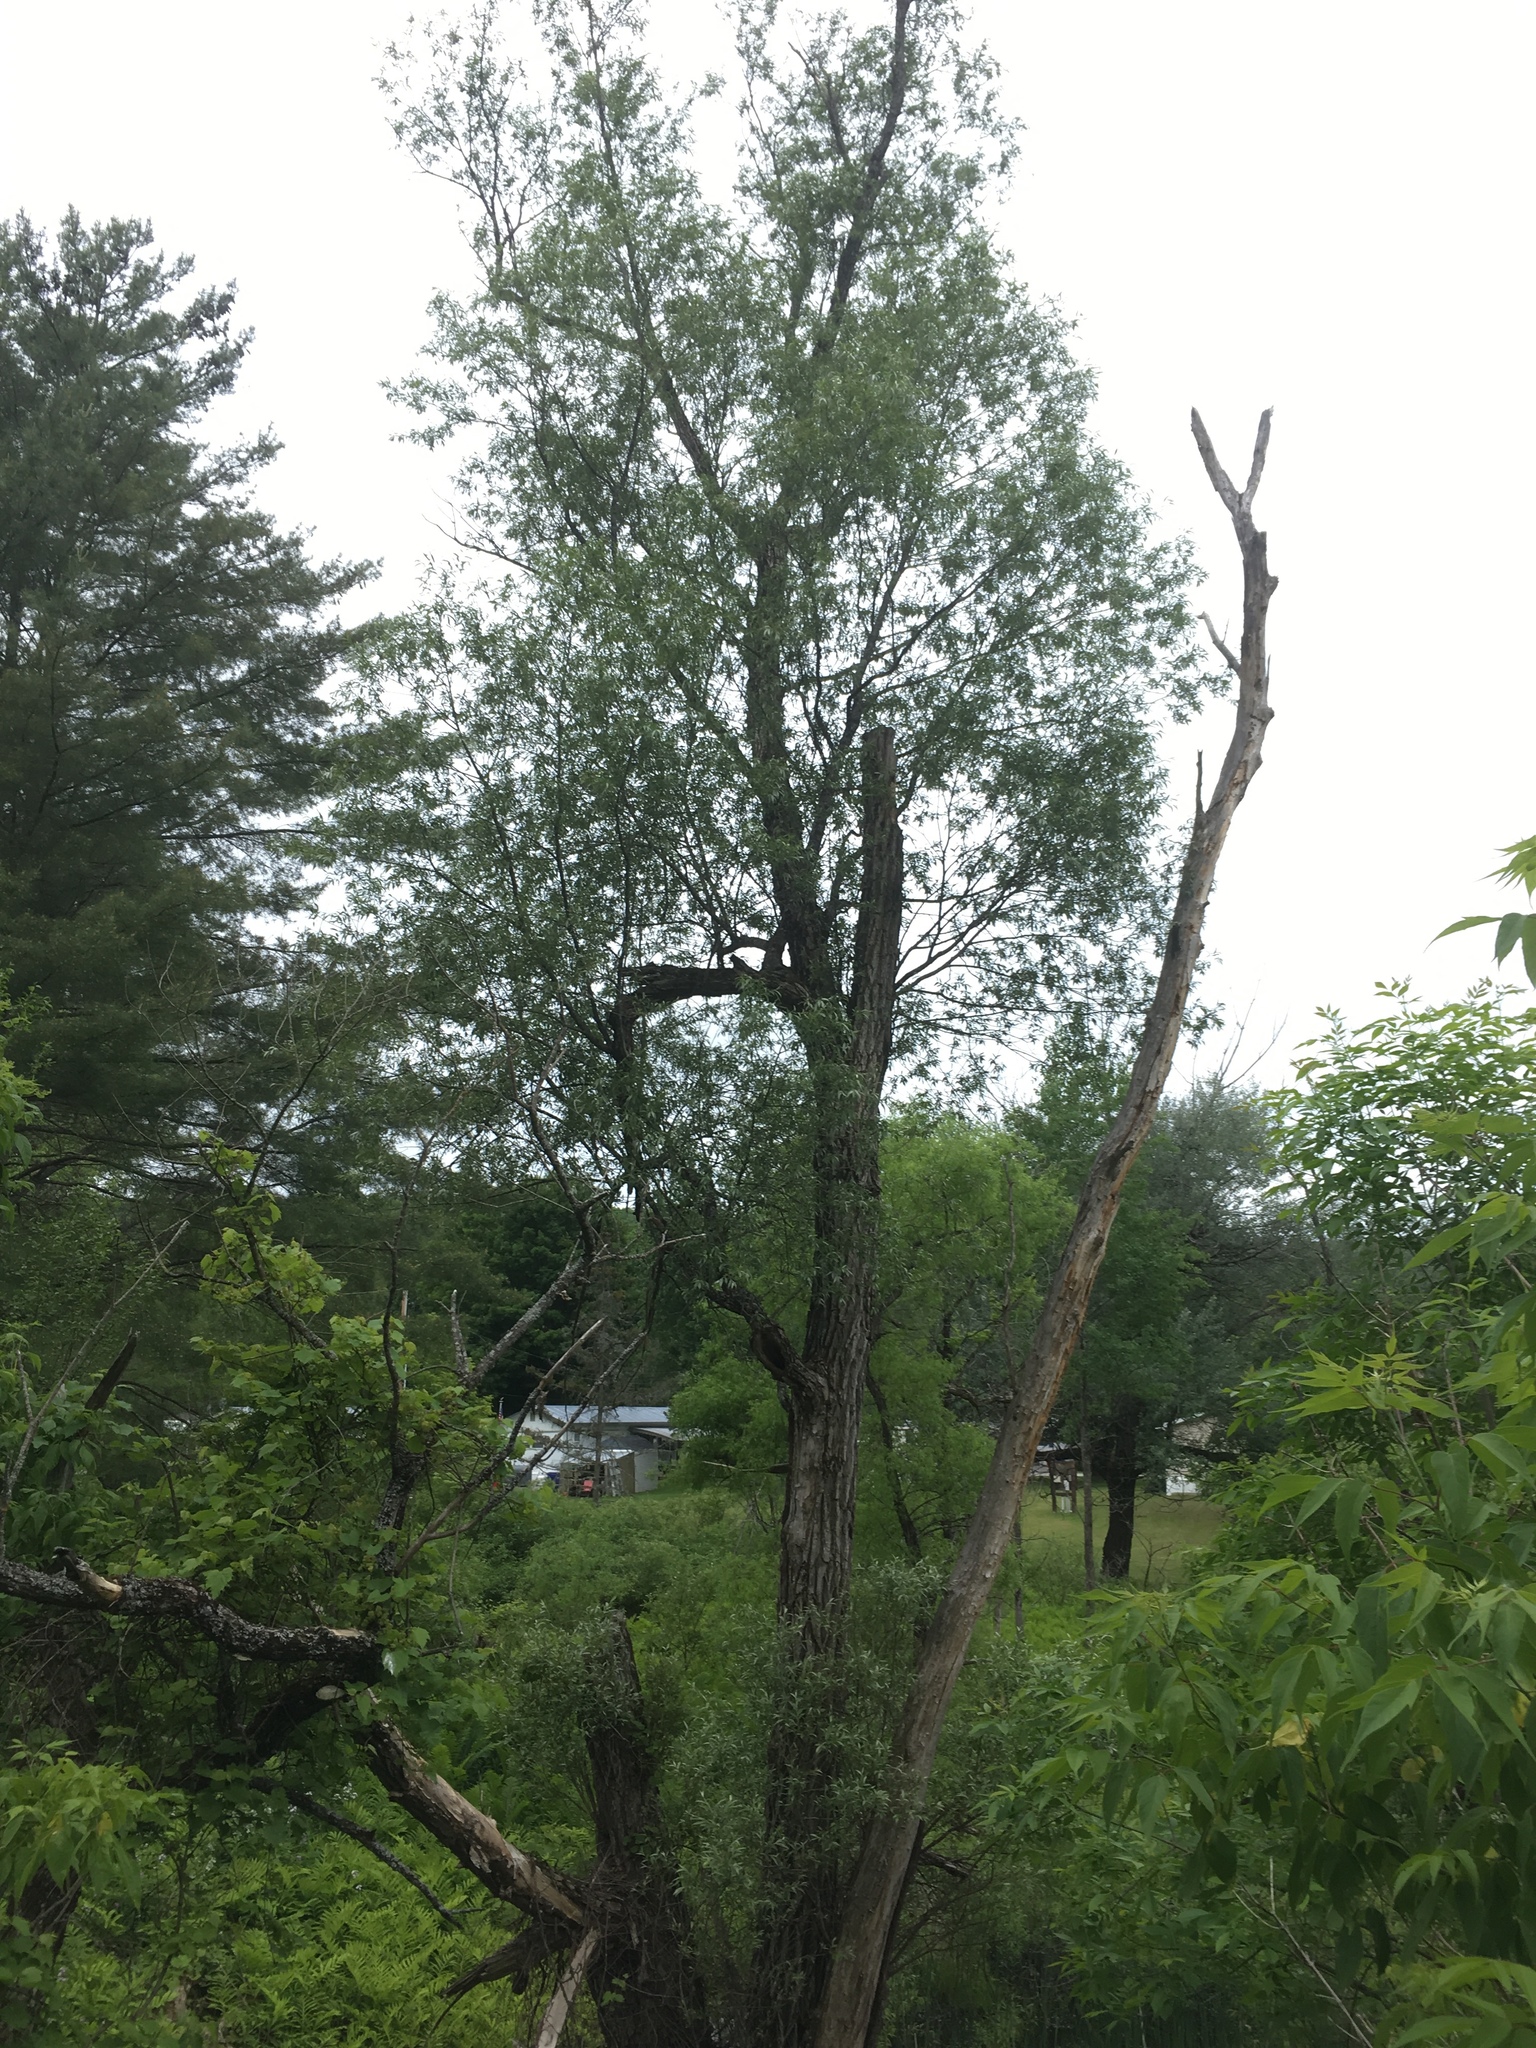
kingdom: Plantae
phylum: Tracheophyta
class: Magnoliopsida
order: Malpighiales
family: Salicaceae
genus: Salix
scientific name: Salix nigra
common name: Black willow
